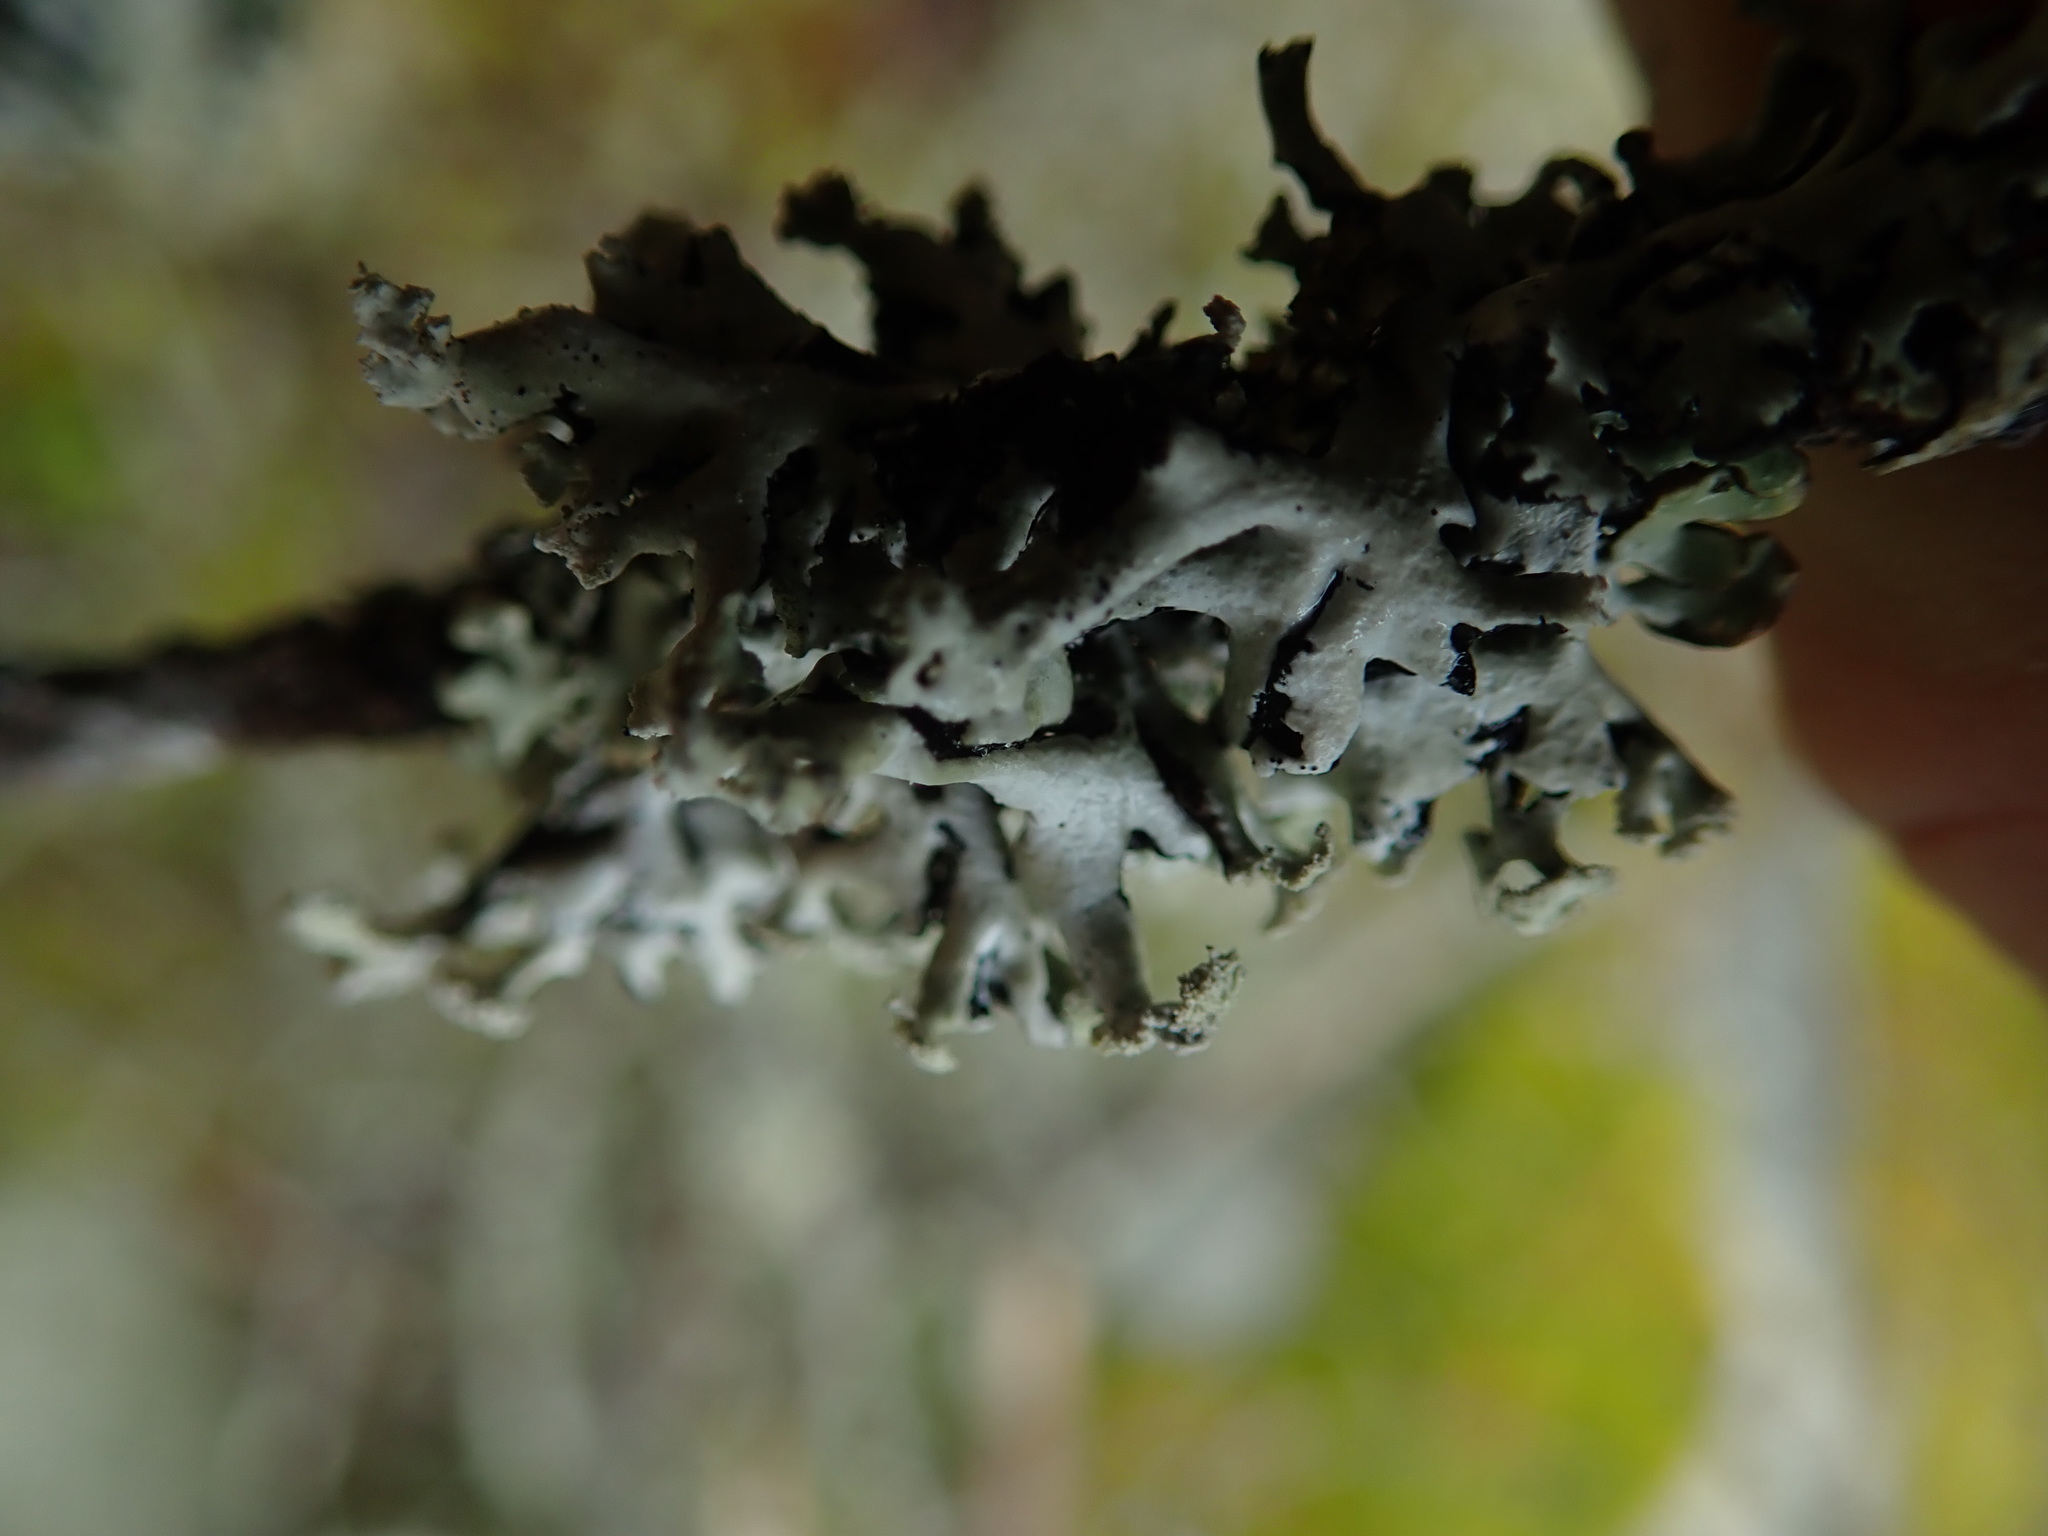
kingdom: Fungi
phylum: Ascomycota
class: Lecanoromycetes
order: Lecanorales
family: Parmeliaceae
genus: Hypogymnia
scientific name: Hypogymnia physodes
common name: Dark crottle
